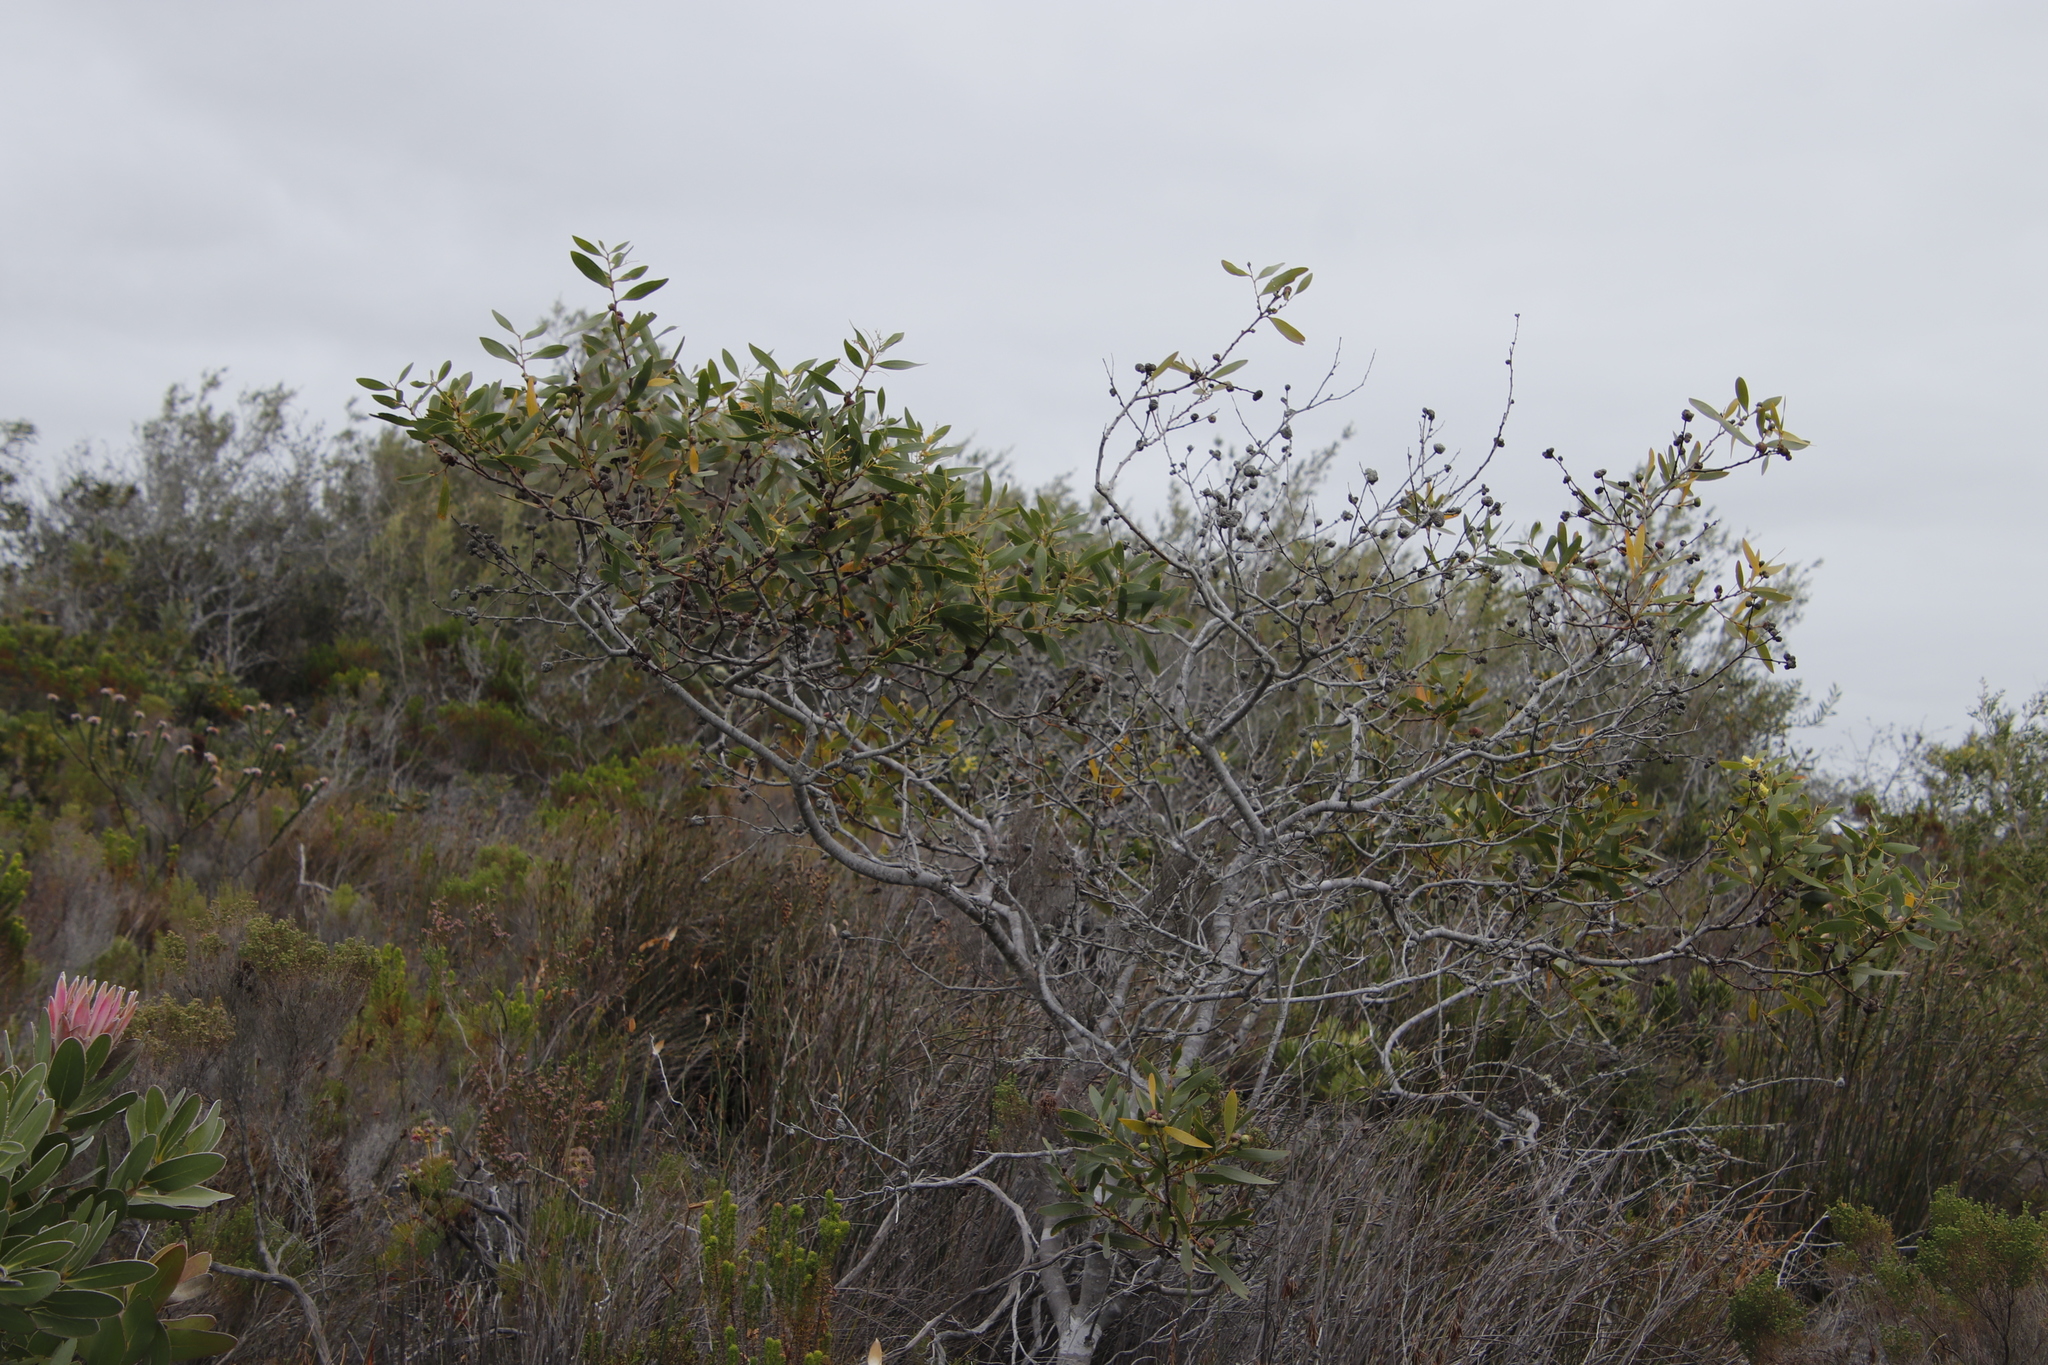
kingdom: Plantae
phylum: Tracheophyta
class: Magnoliopsida
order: Fabales
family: Fabaceae
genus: Acacia
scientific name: Acacia longifolia
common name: Sydney golden wattle
